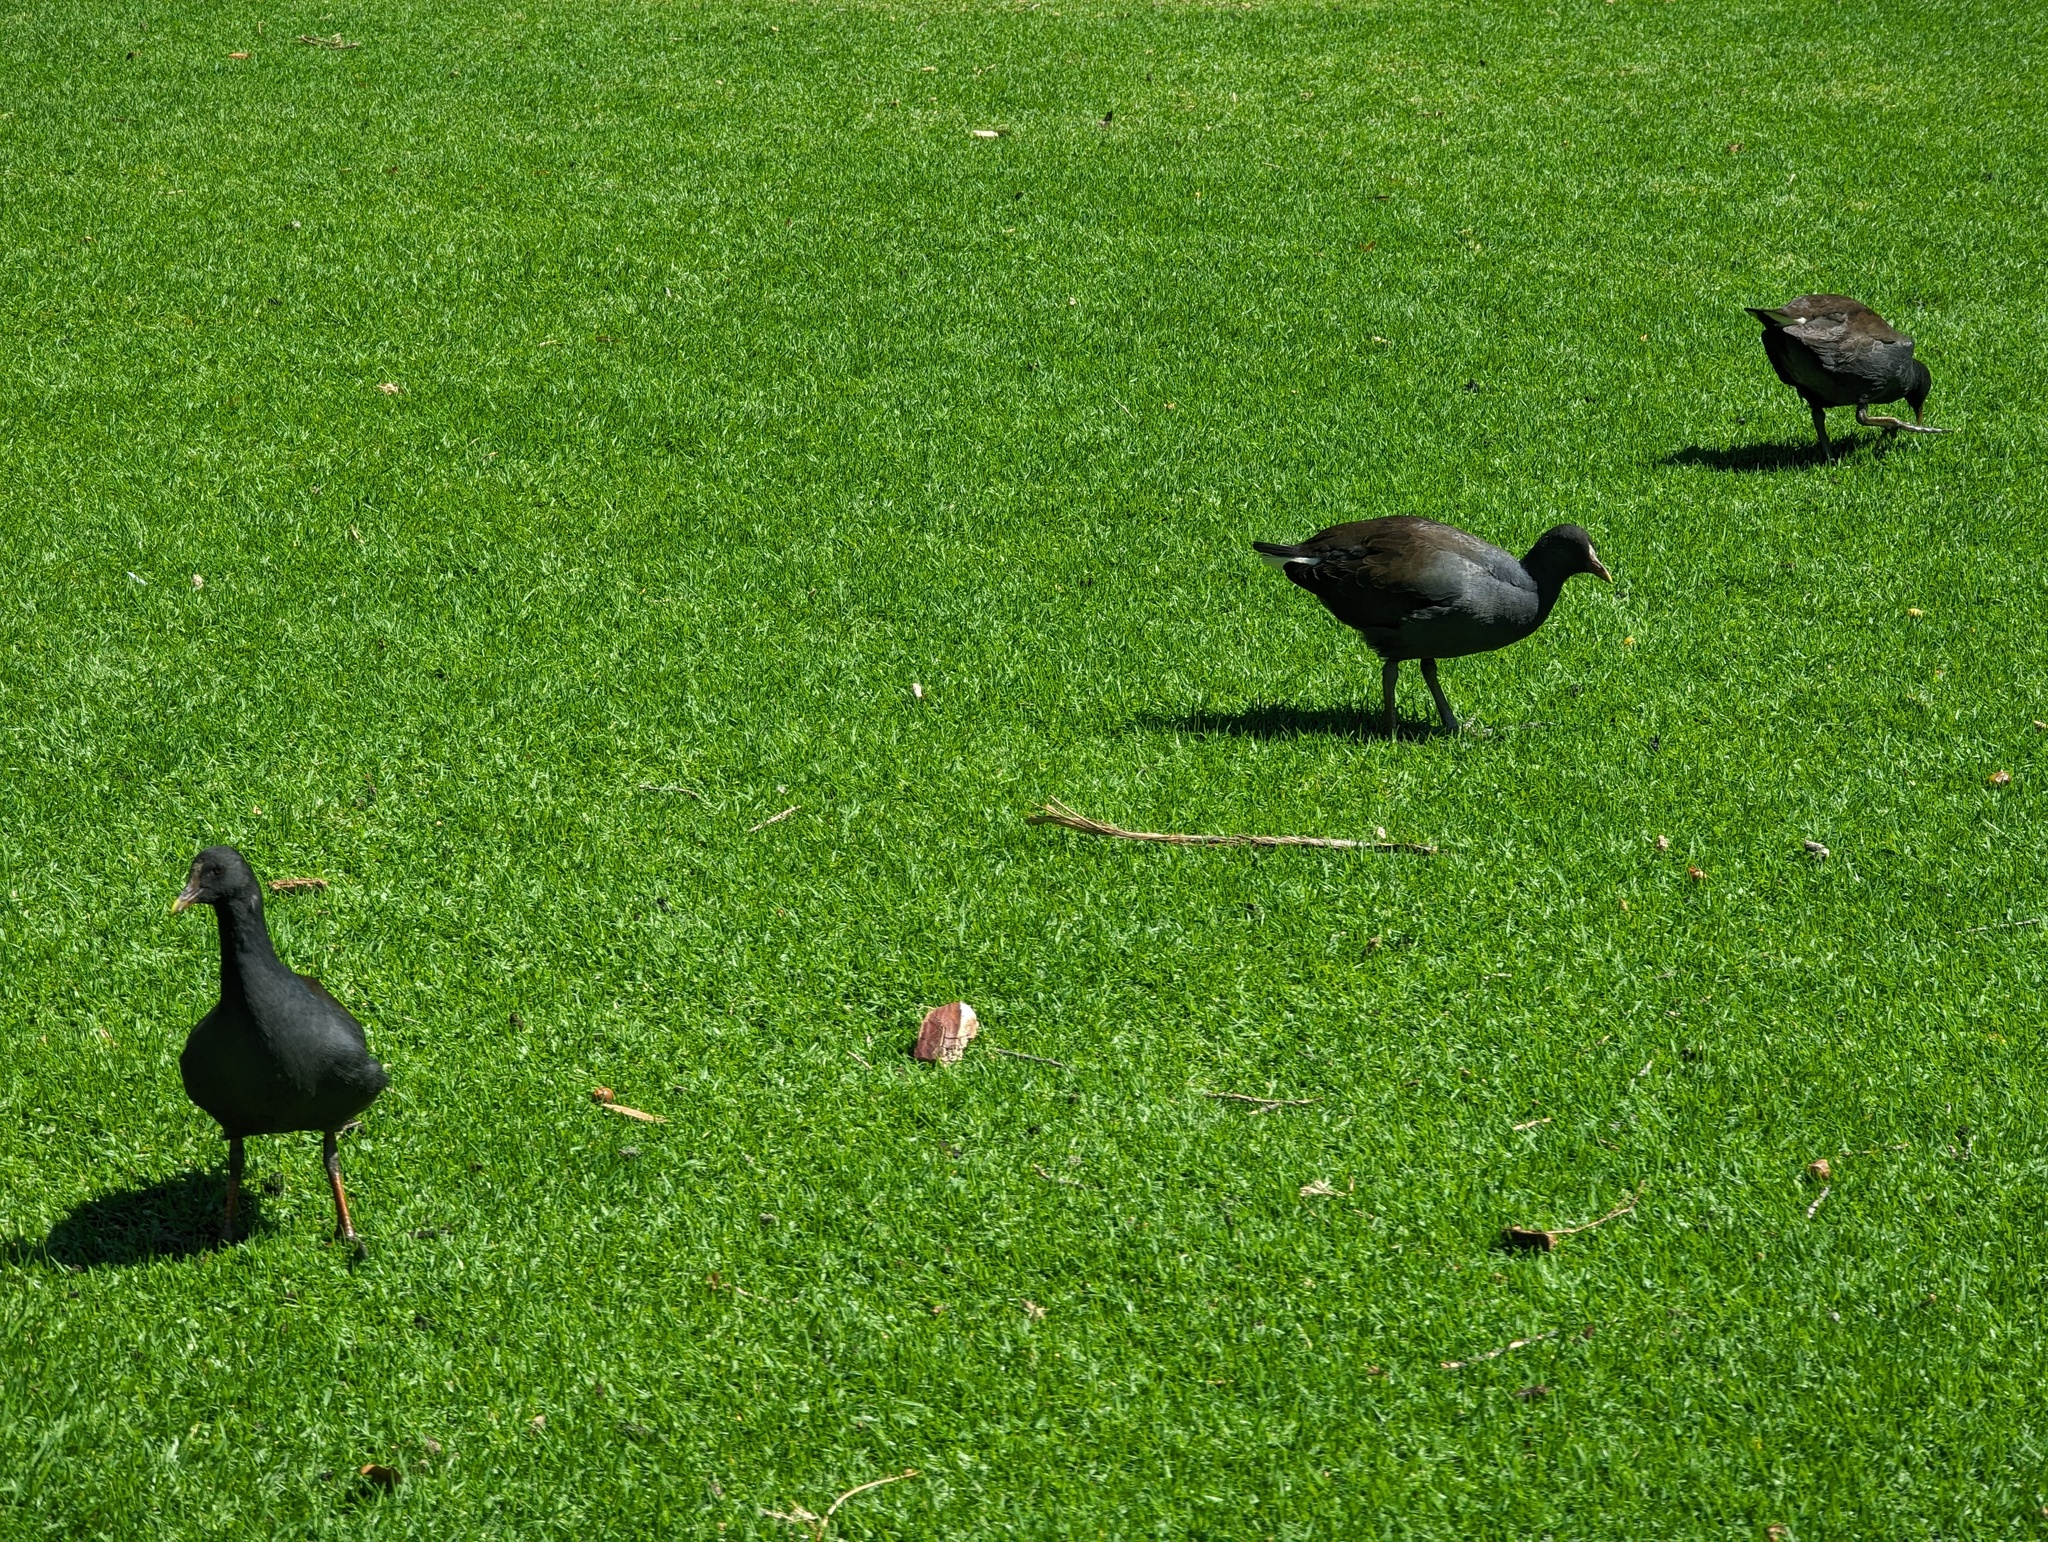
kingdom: Animalia
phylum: Chordata
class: Aves
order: Gruiformes
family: Rallidae
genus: Gallinula
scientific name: Gallinula tenebrosa
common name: Dusky moorhen
